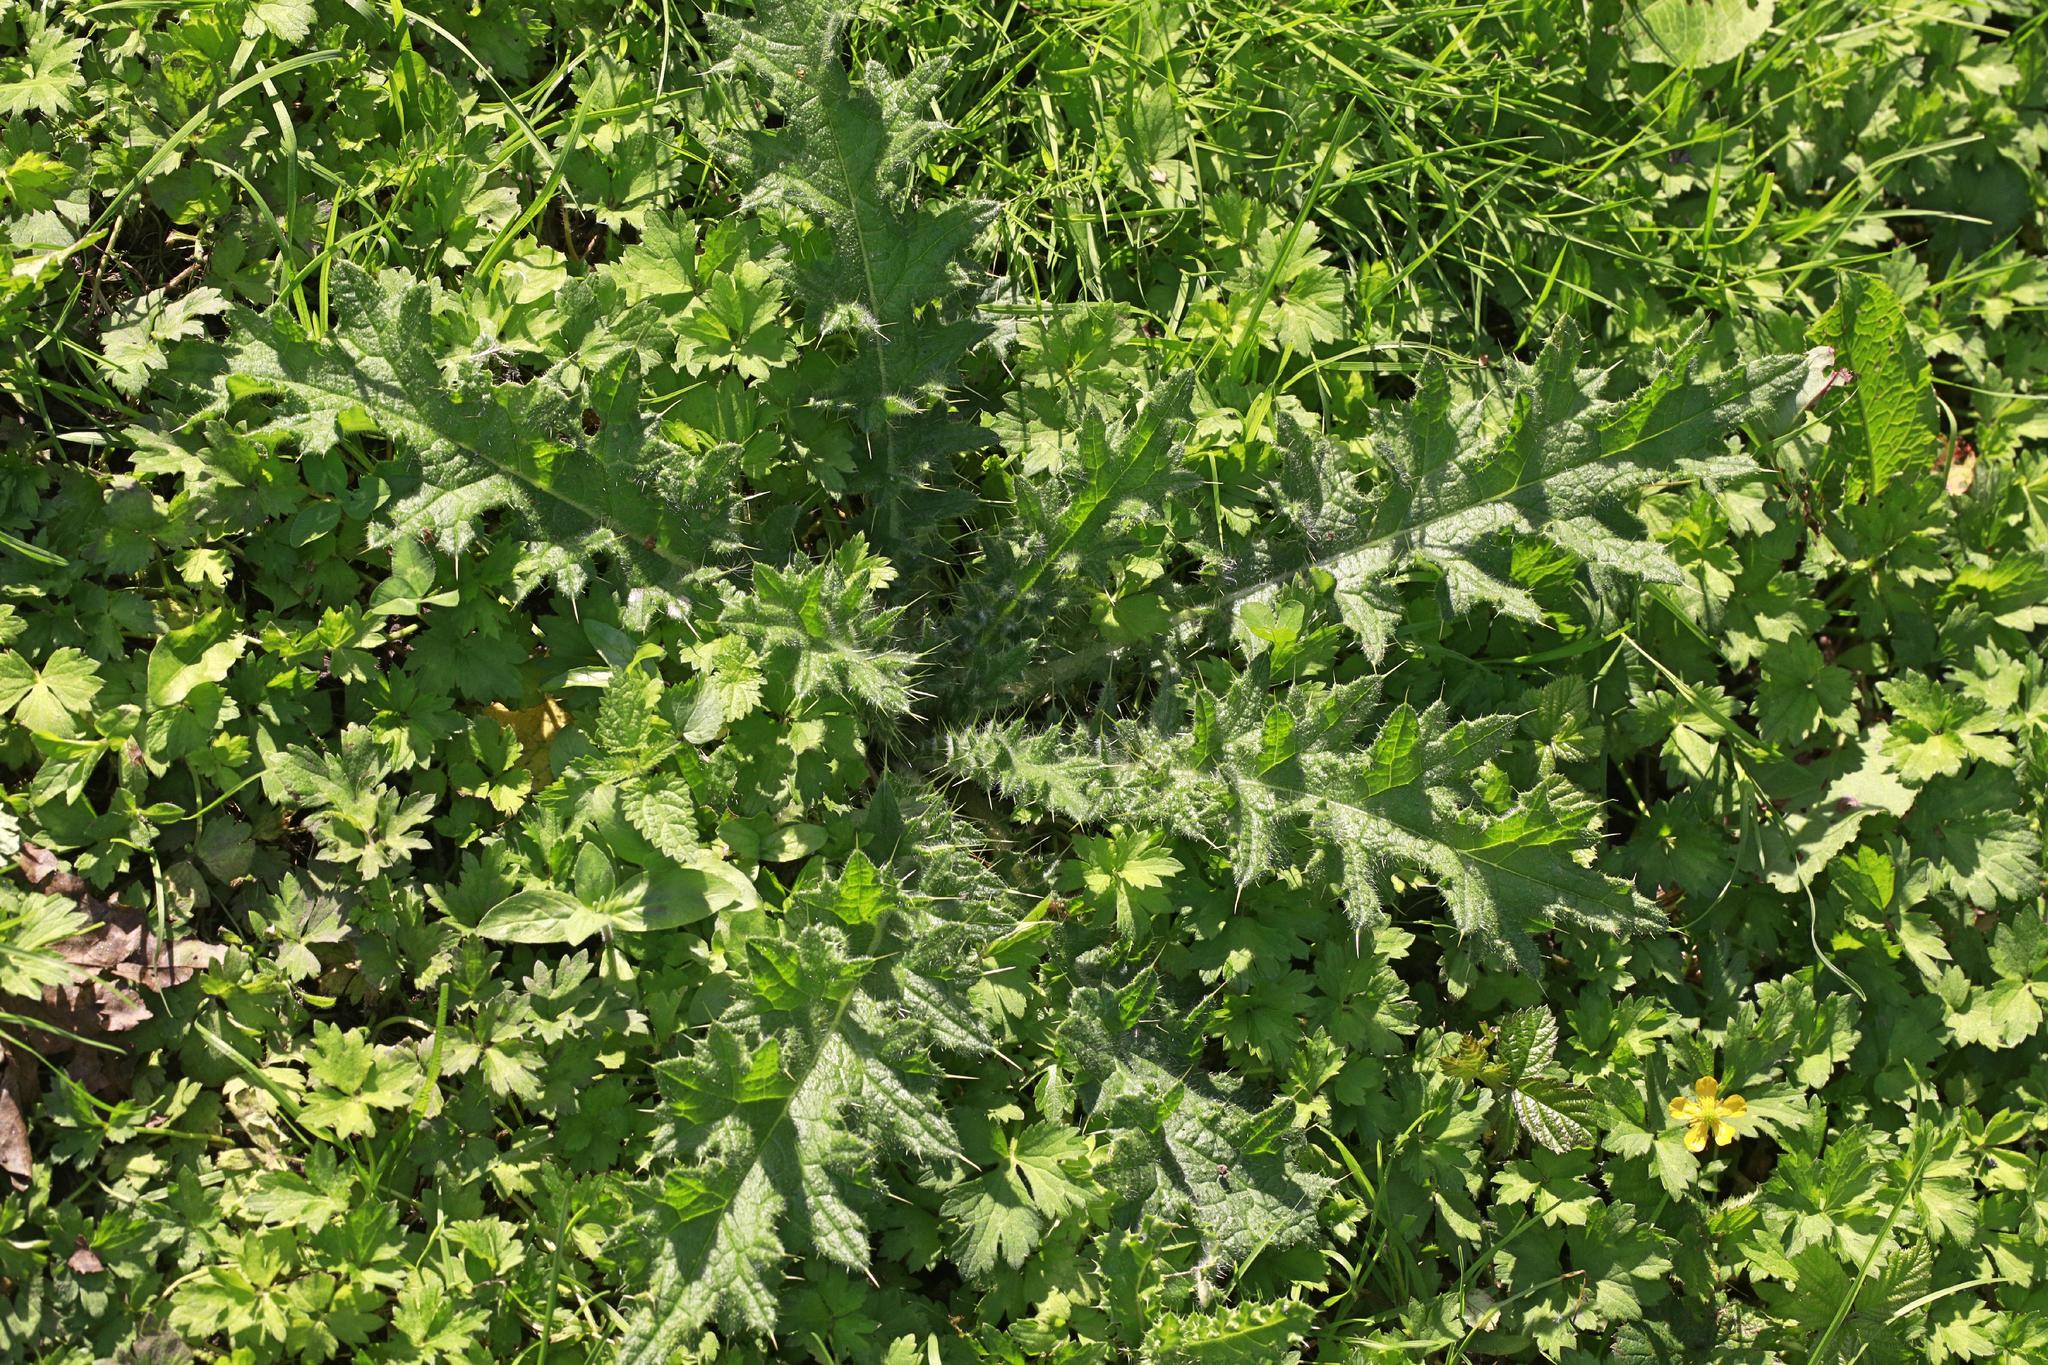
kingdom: Plantae
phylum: Tracheophyta
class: Magnoliopsida
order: Asterales
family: Asteraceae
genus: Cirsium
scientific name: Cirsium vulgare
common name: Bull thistle
